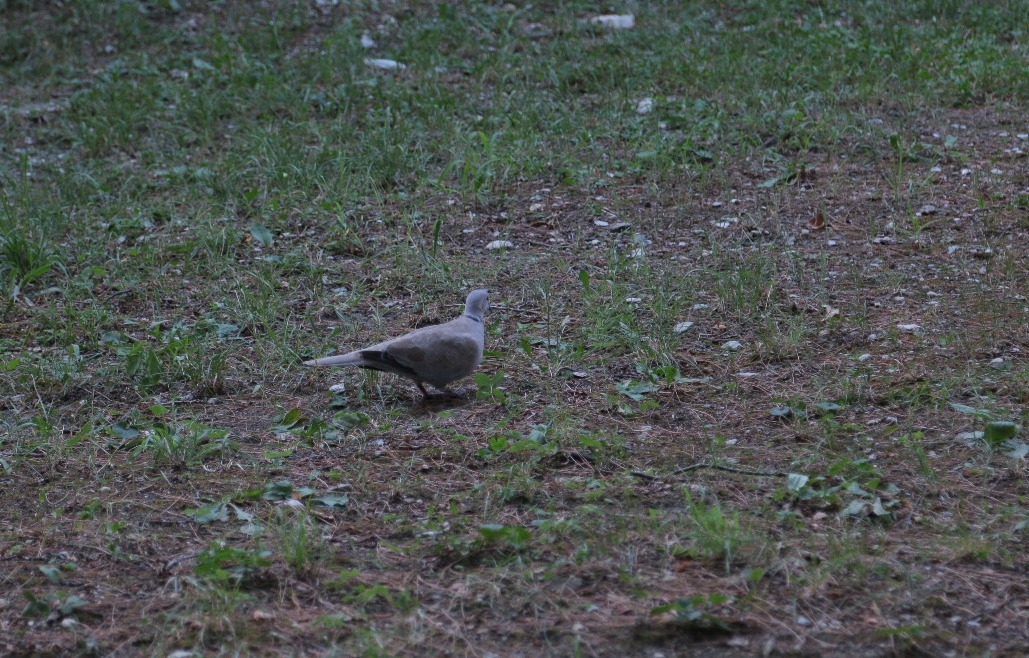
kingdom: Animalia
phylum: Chordata
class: Aves
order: Columbiformes
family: Columbidae
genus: Streptopelia
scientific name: Streptopelia decaocto
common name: Eurasian collared dove
